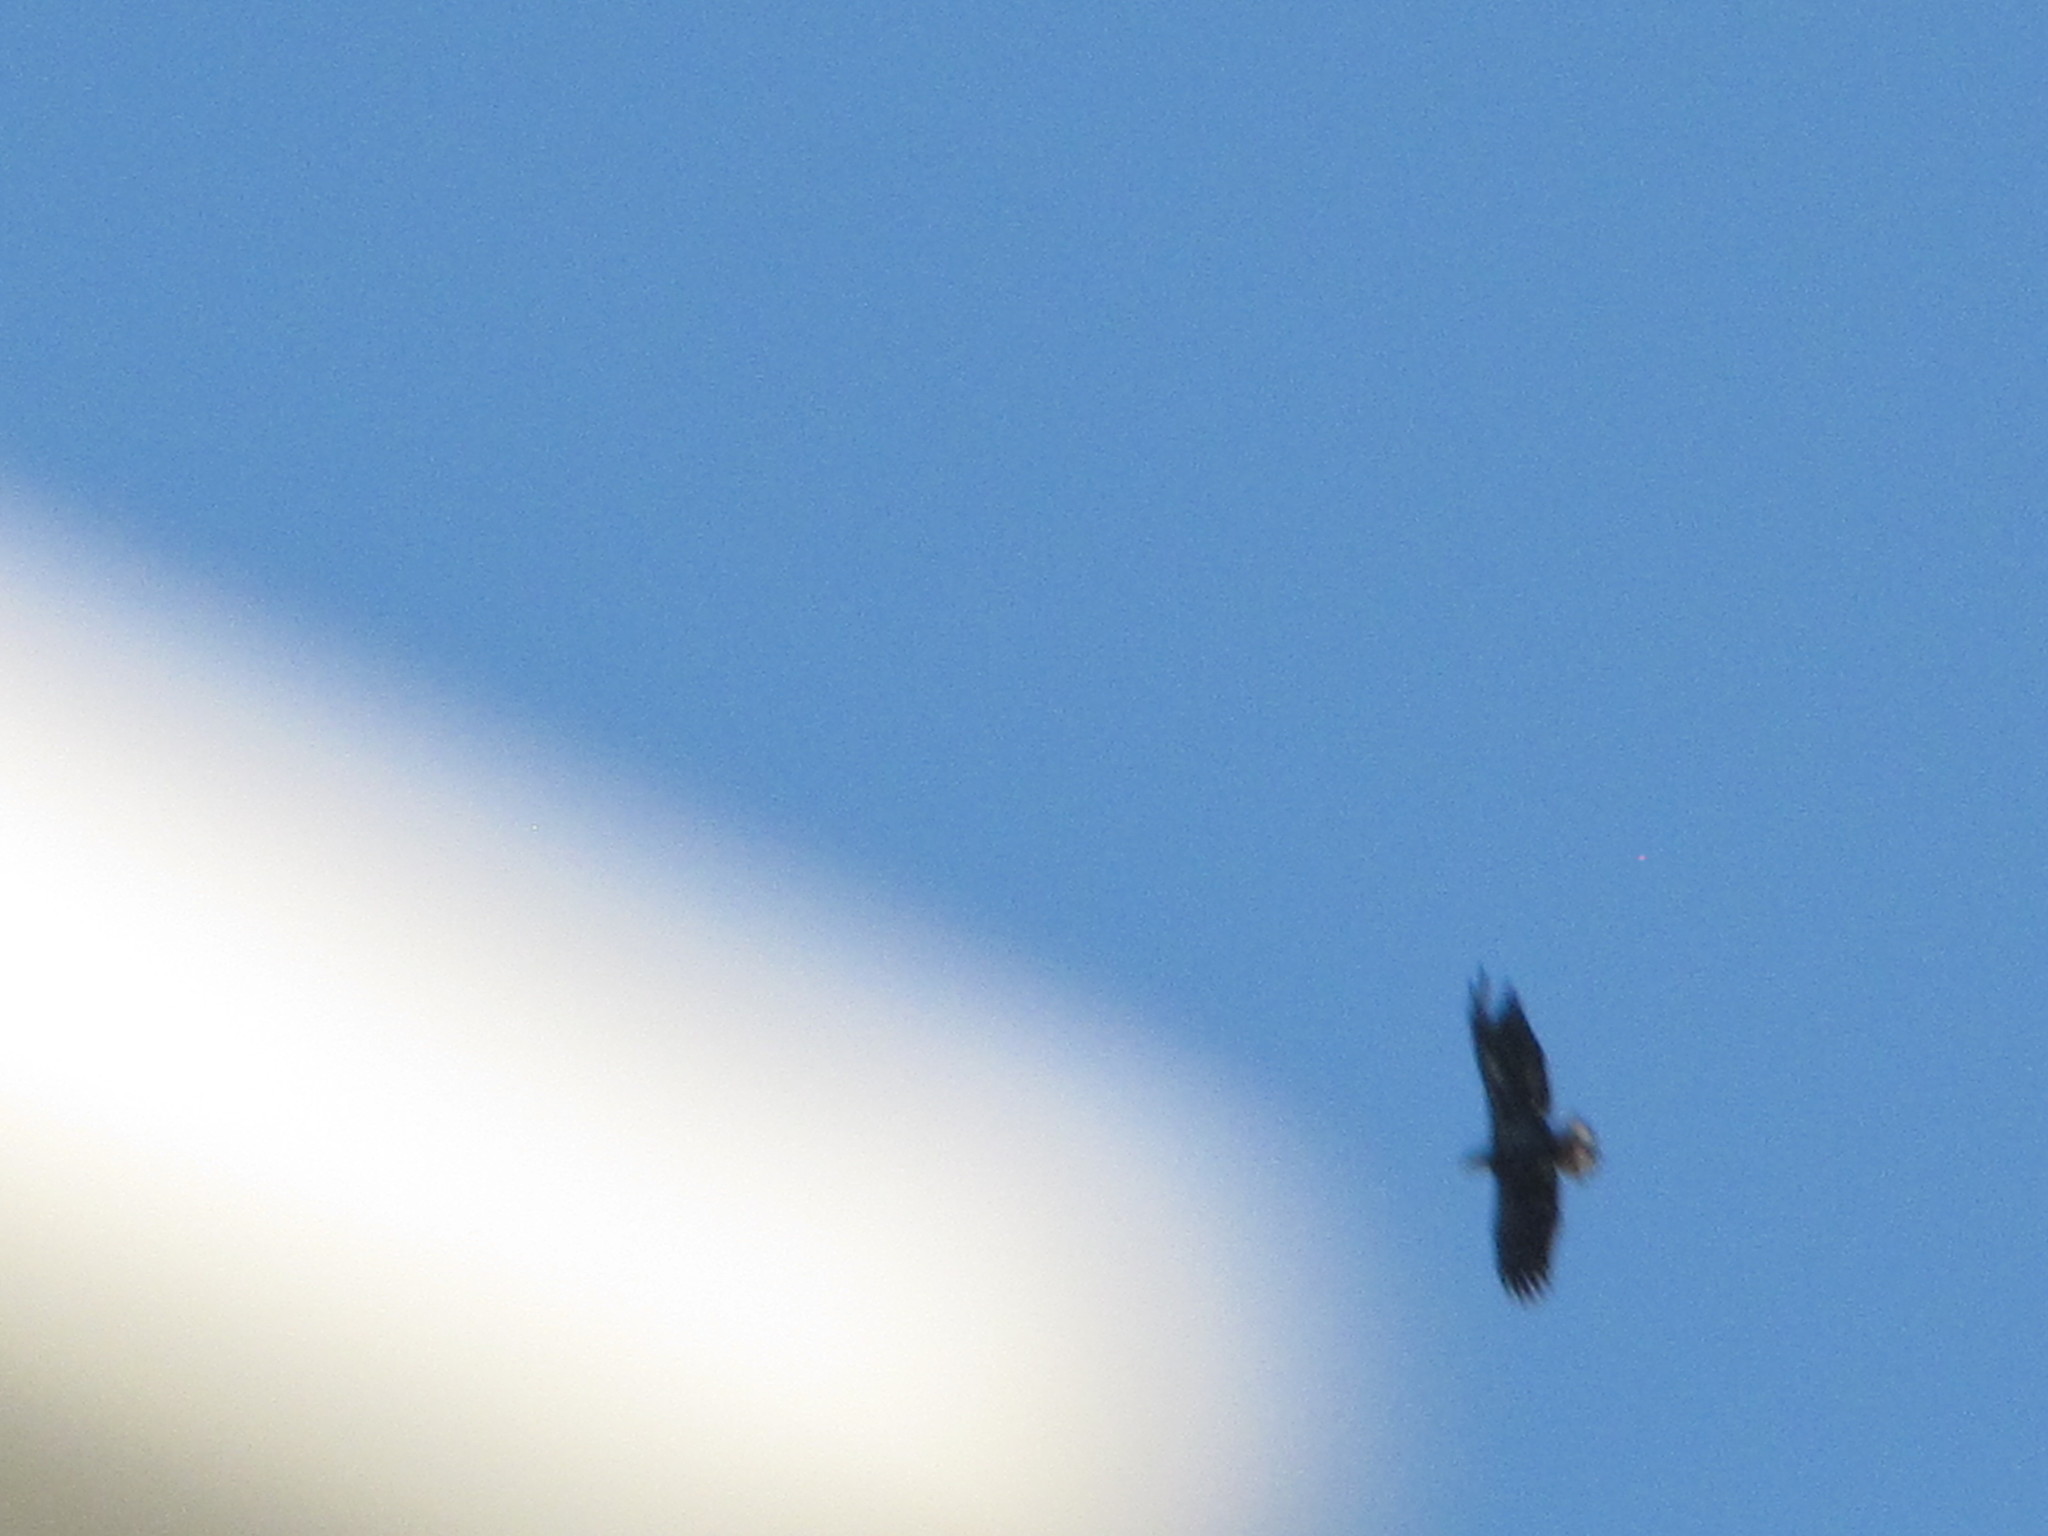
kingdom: Animalia
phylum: Chordata
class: Aves
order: Accipitriformes
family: Accipitridae
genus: Haliaeetus
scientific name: Haliaeetus leucocephalus
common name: Bald eagle
